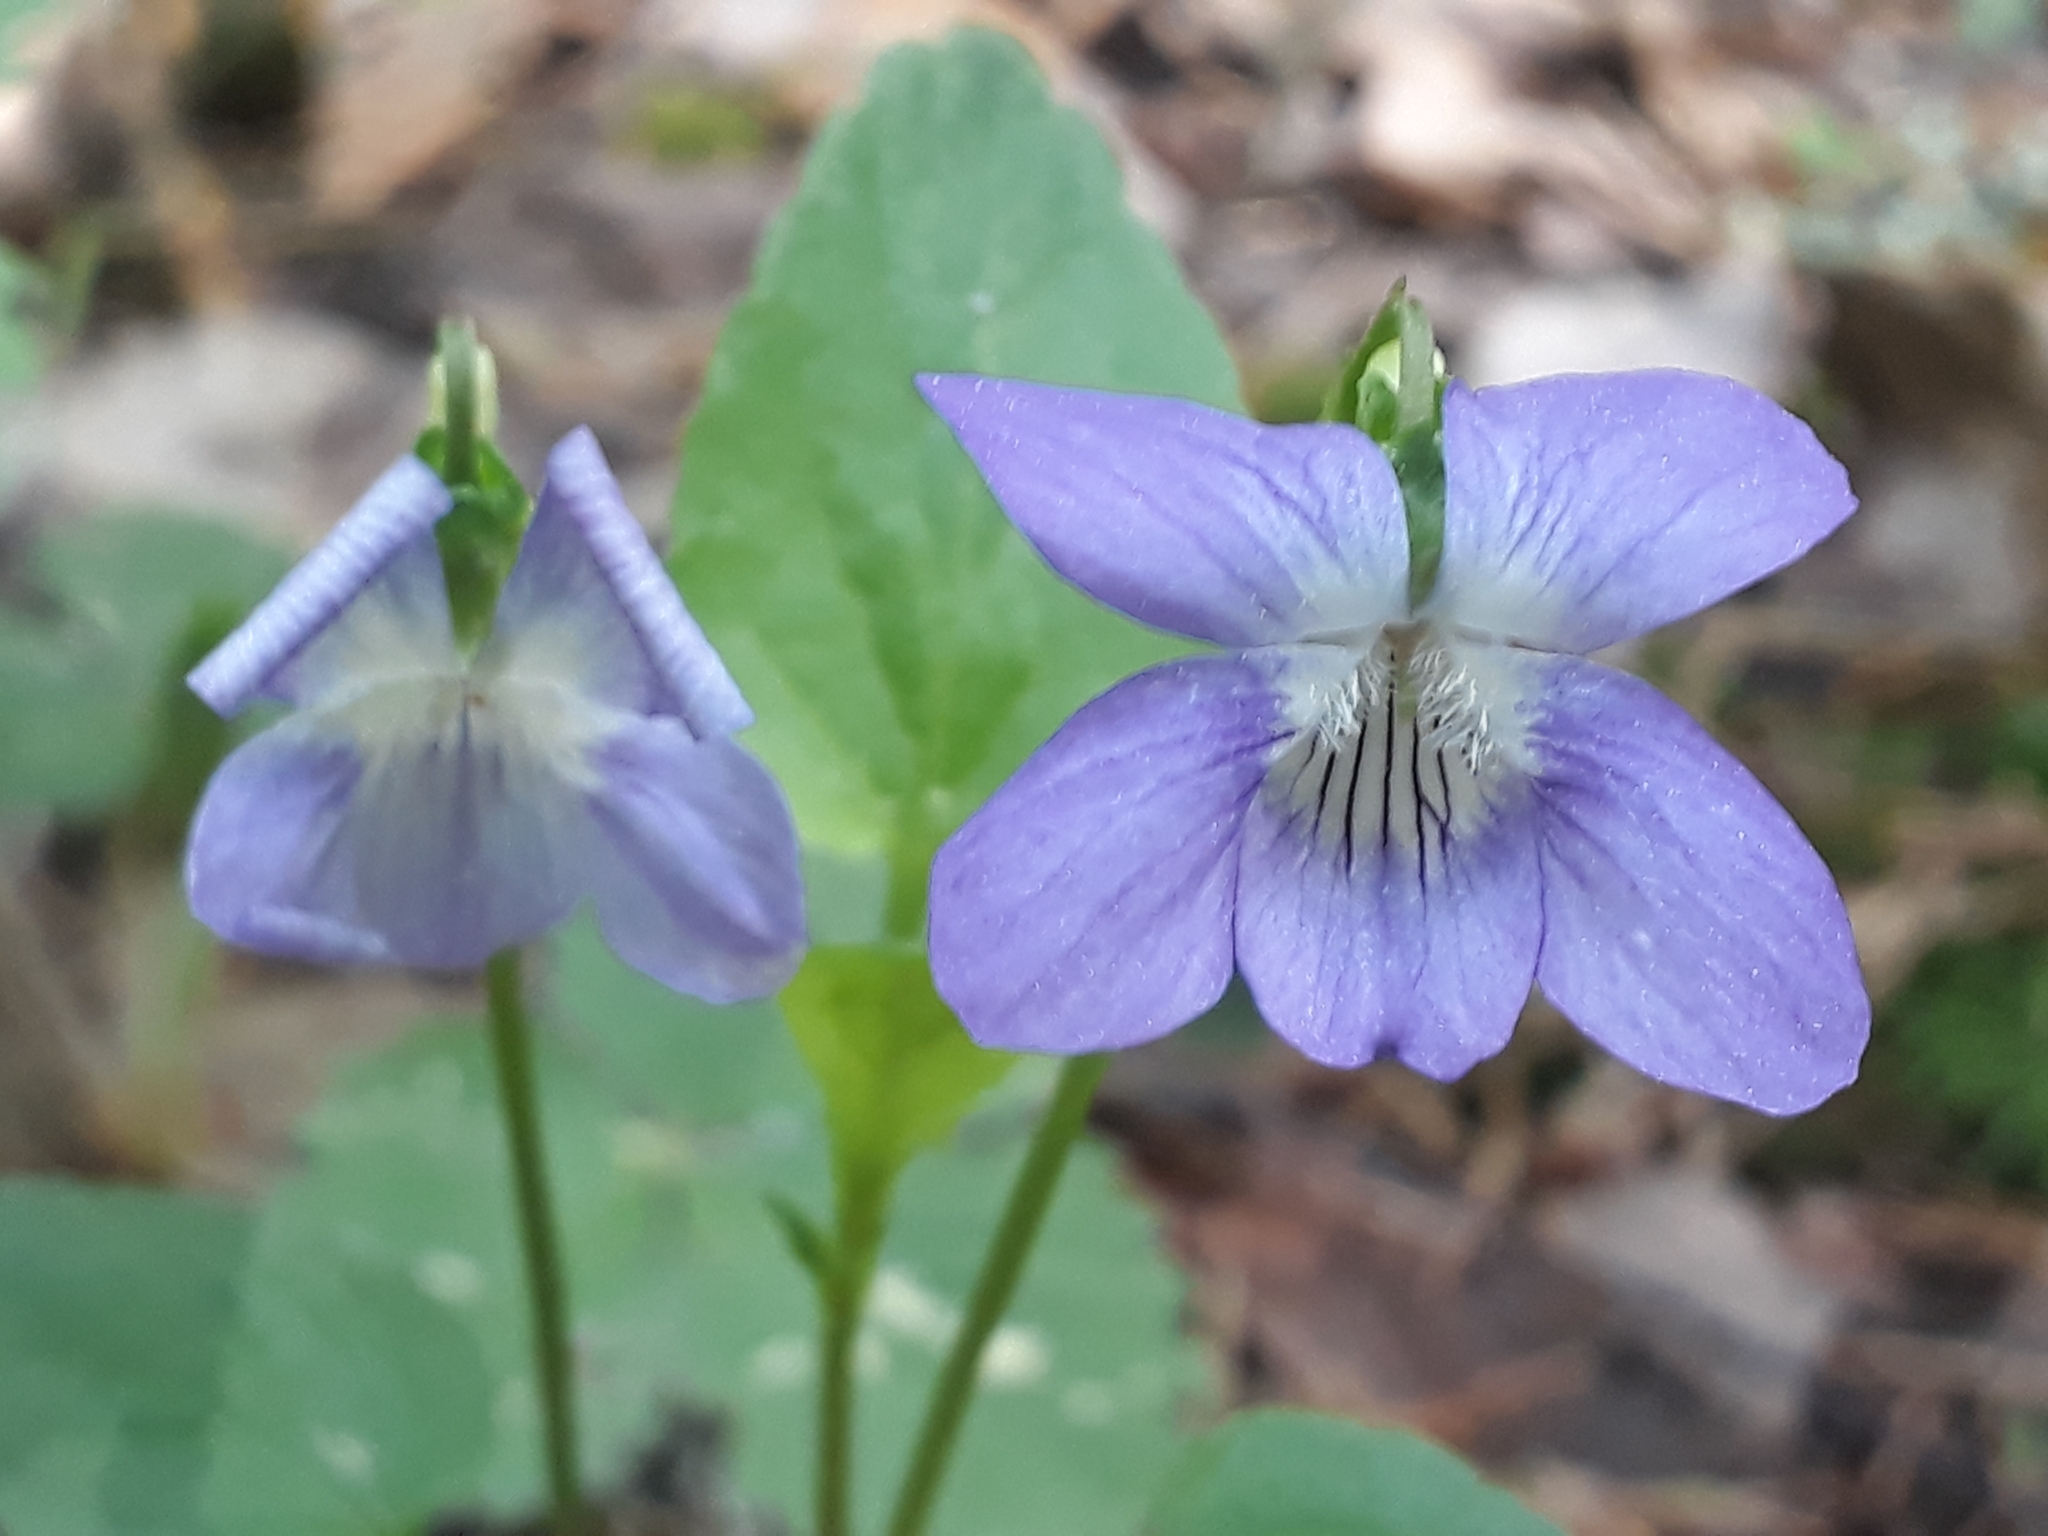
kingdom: Plantae
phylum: Tracheophyta
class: Magnoliopsida
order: Malpighiales
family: Violaceae
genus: Viola
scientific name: Viola canina
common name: Heath dog-violet
